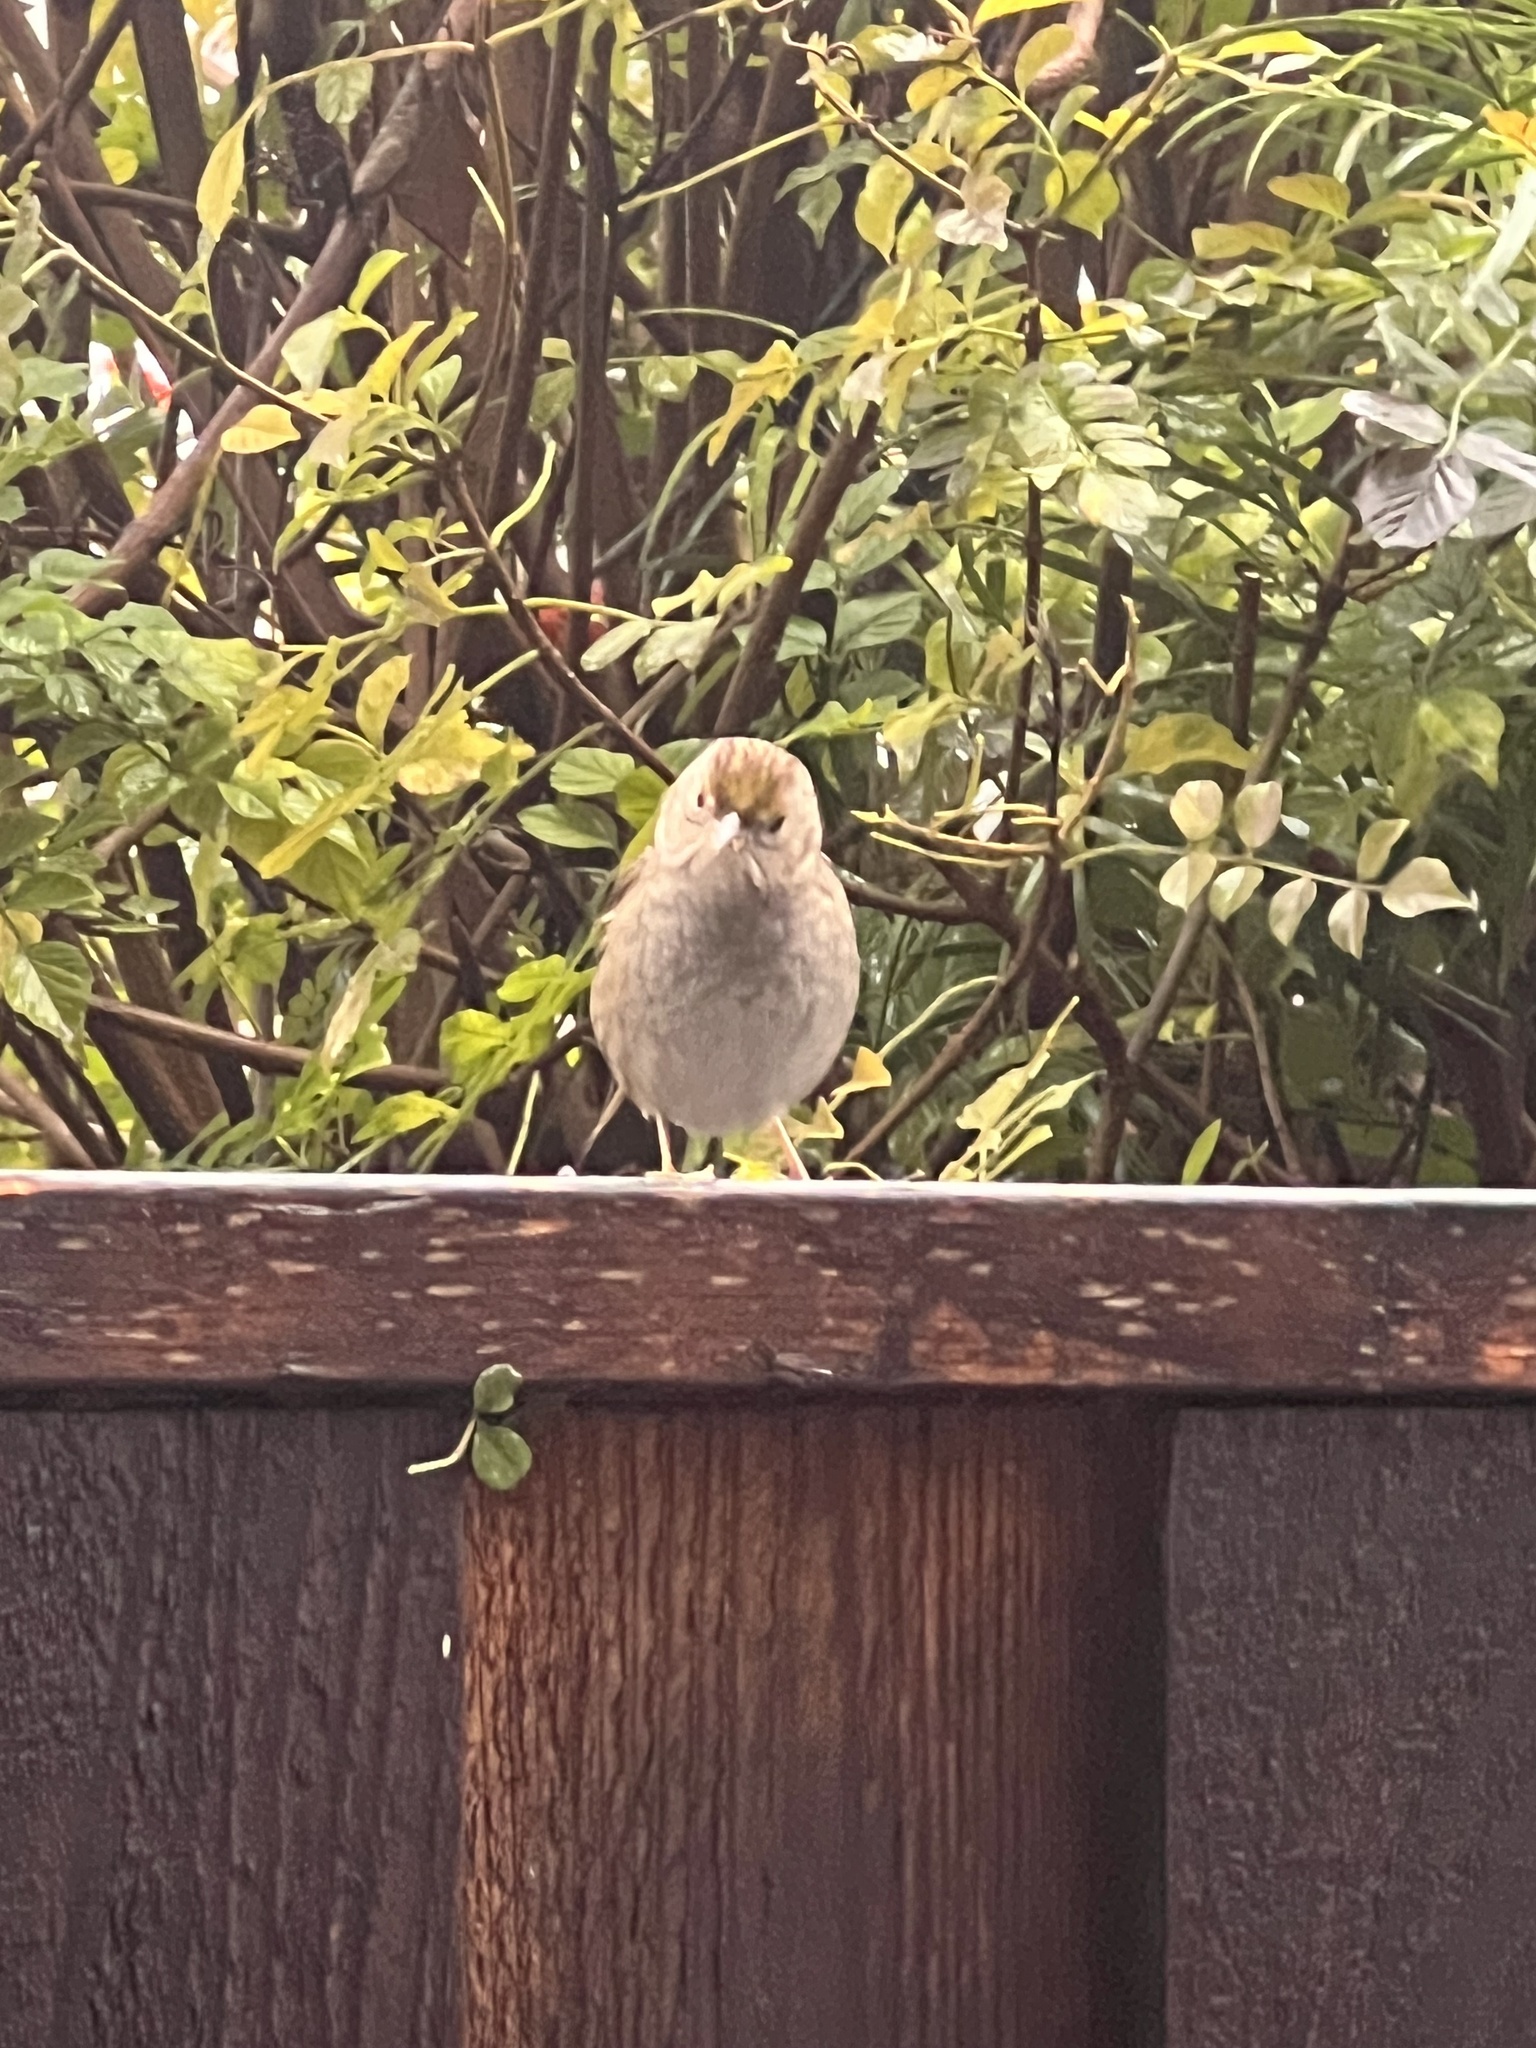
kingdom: Animalia
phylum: Chordata
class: Aves
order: Passeriformes
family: Passerellidae
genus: Zonotrichia
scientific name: Zonotrichia atricapilla
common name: Golden-crowned sparrow
